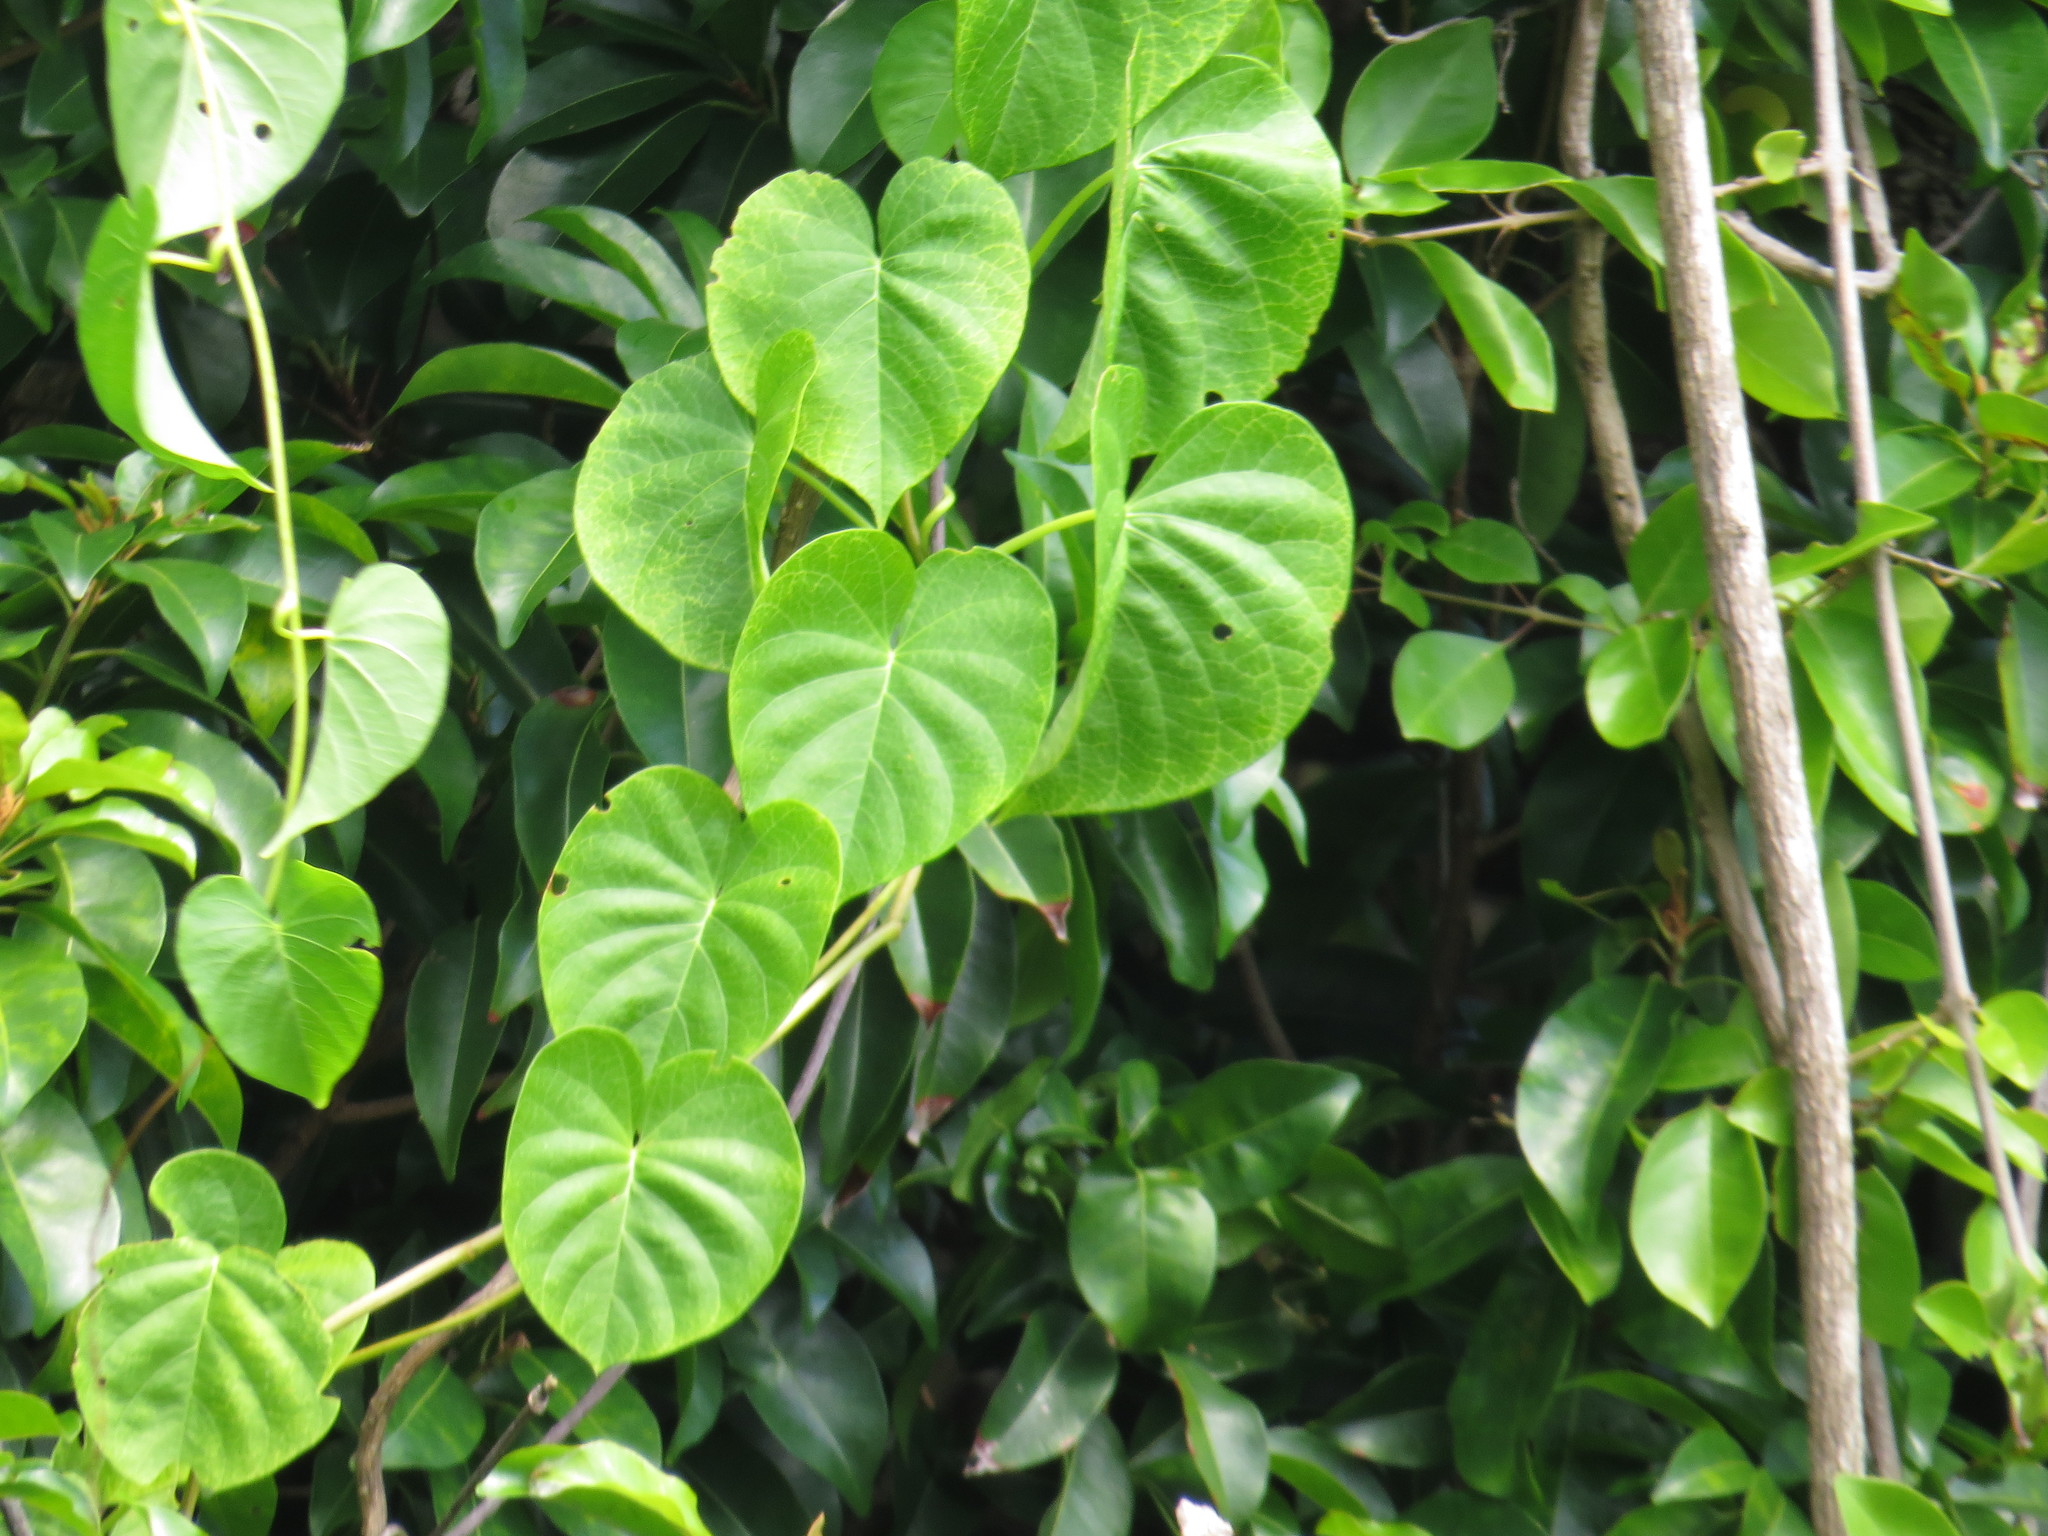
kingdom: Plantae
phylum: Tracheophyta
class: Magnoliopsida
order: Solanales
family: Convolvulaceae
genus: Ipomoea
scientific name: Ipomoea violacea
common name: Beach moonflower
